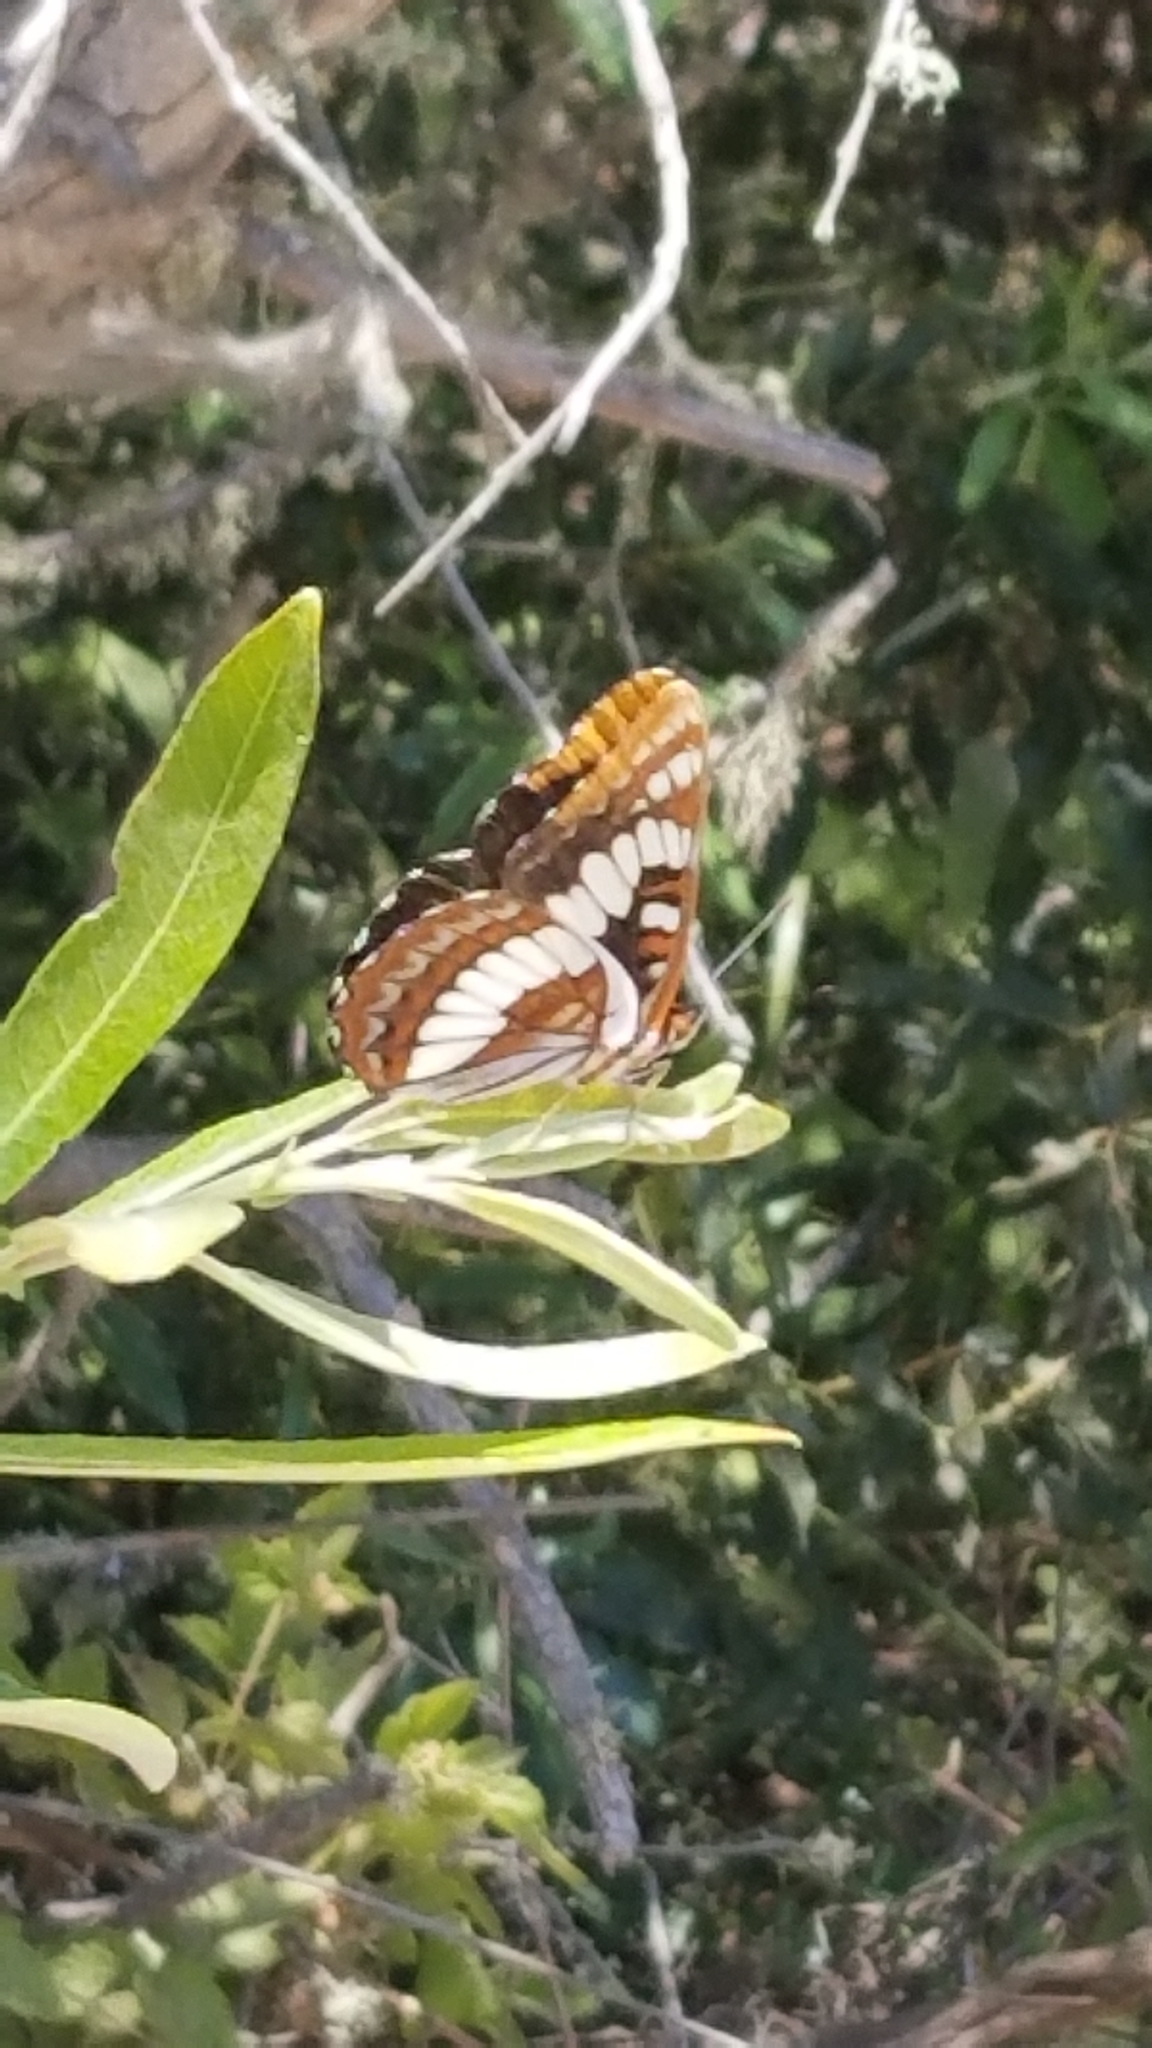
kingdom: Animalia
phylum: Arthropoda
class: Insecta
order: Lepidoptera
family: Nymphalidae
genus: Limenitis
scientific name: Limenitis lorquini
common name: Lorquin's admiral
